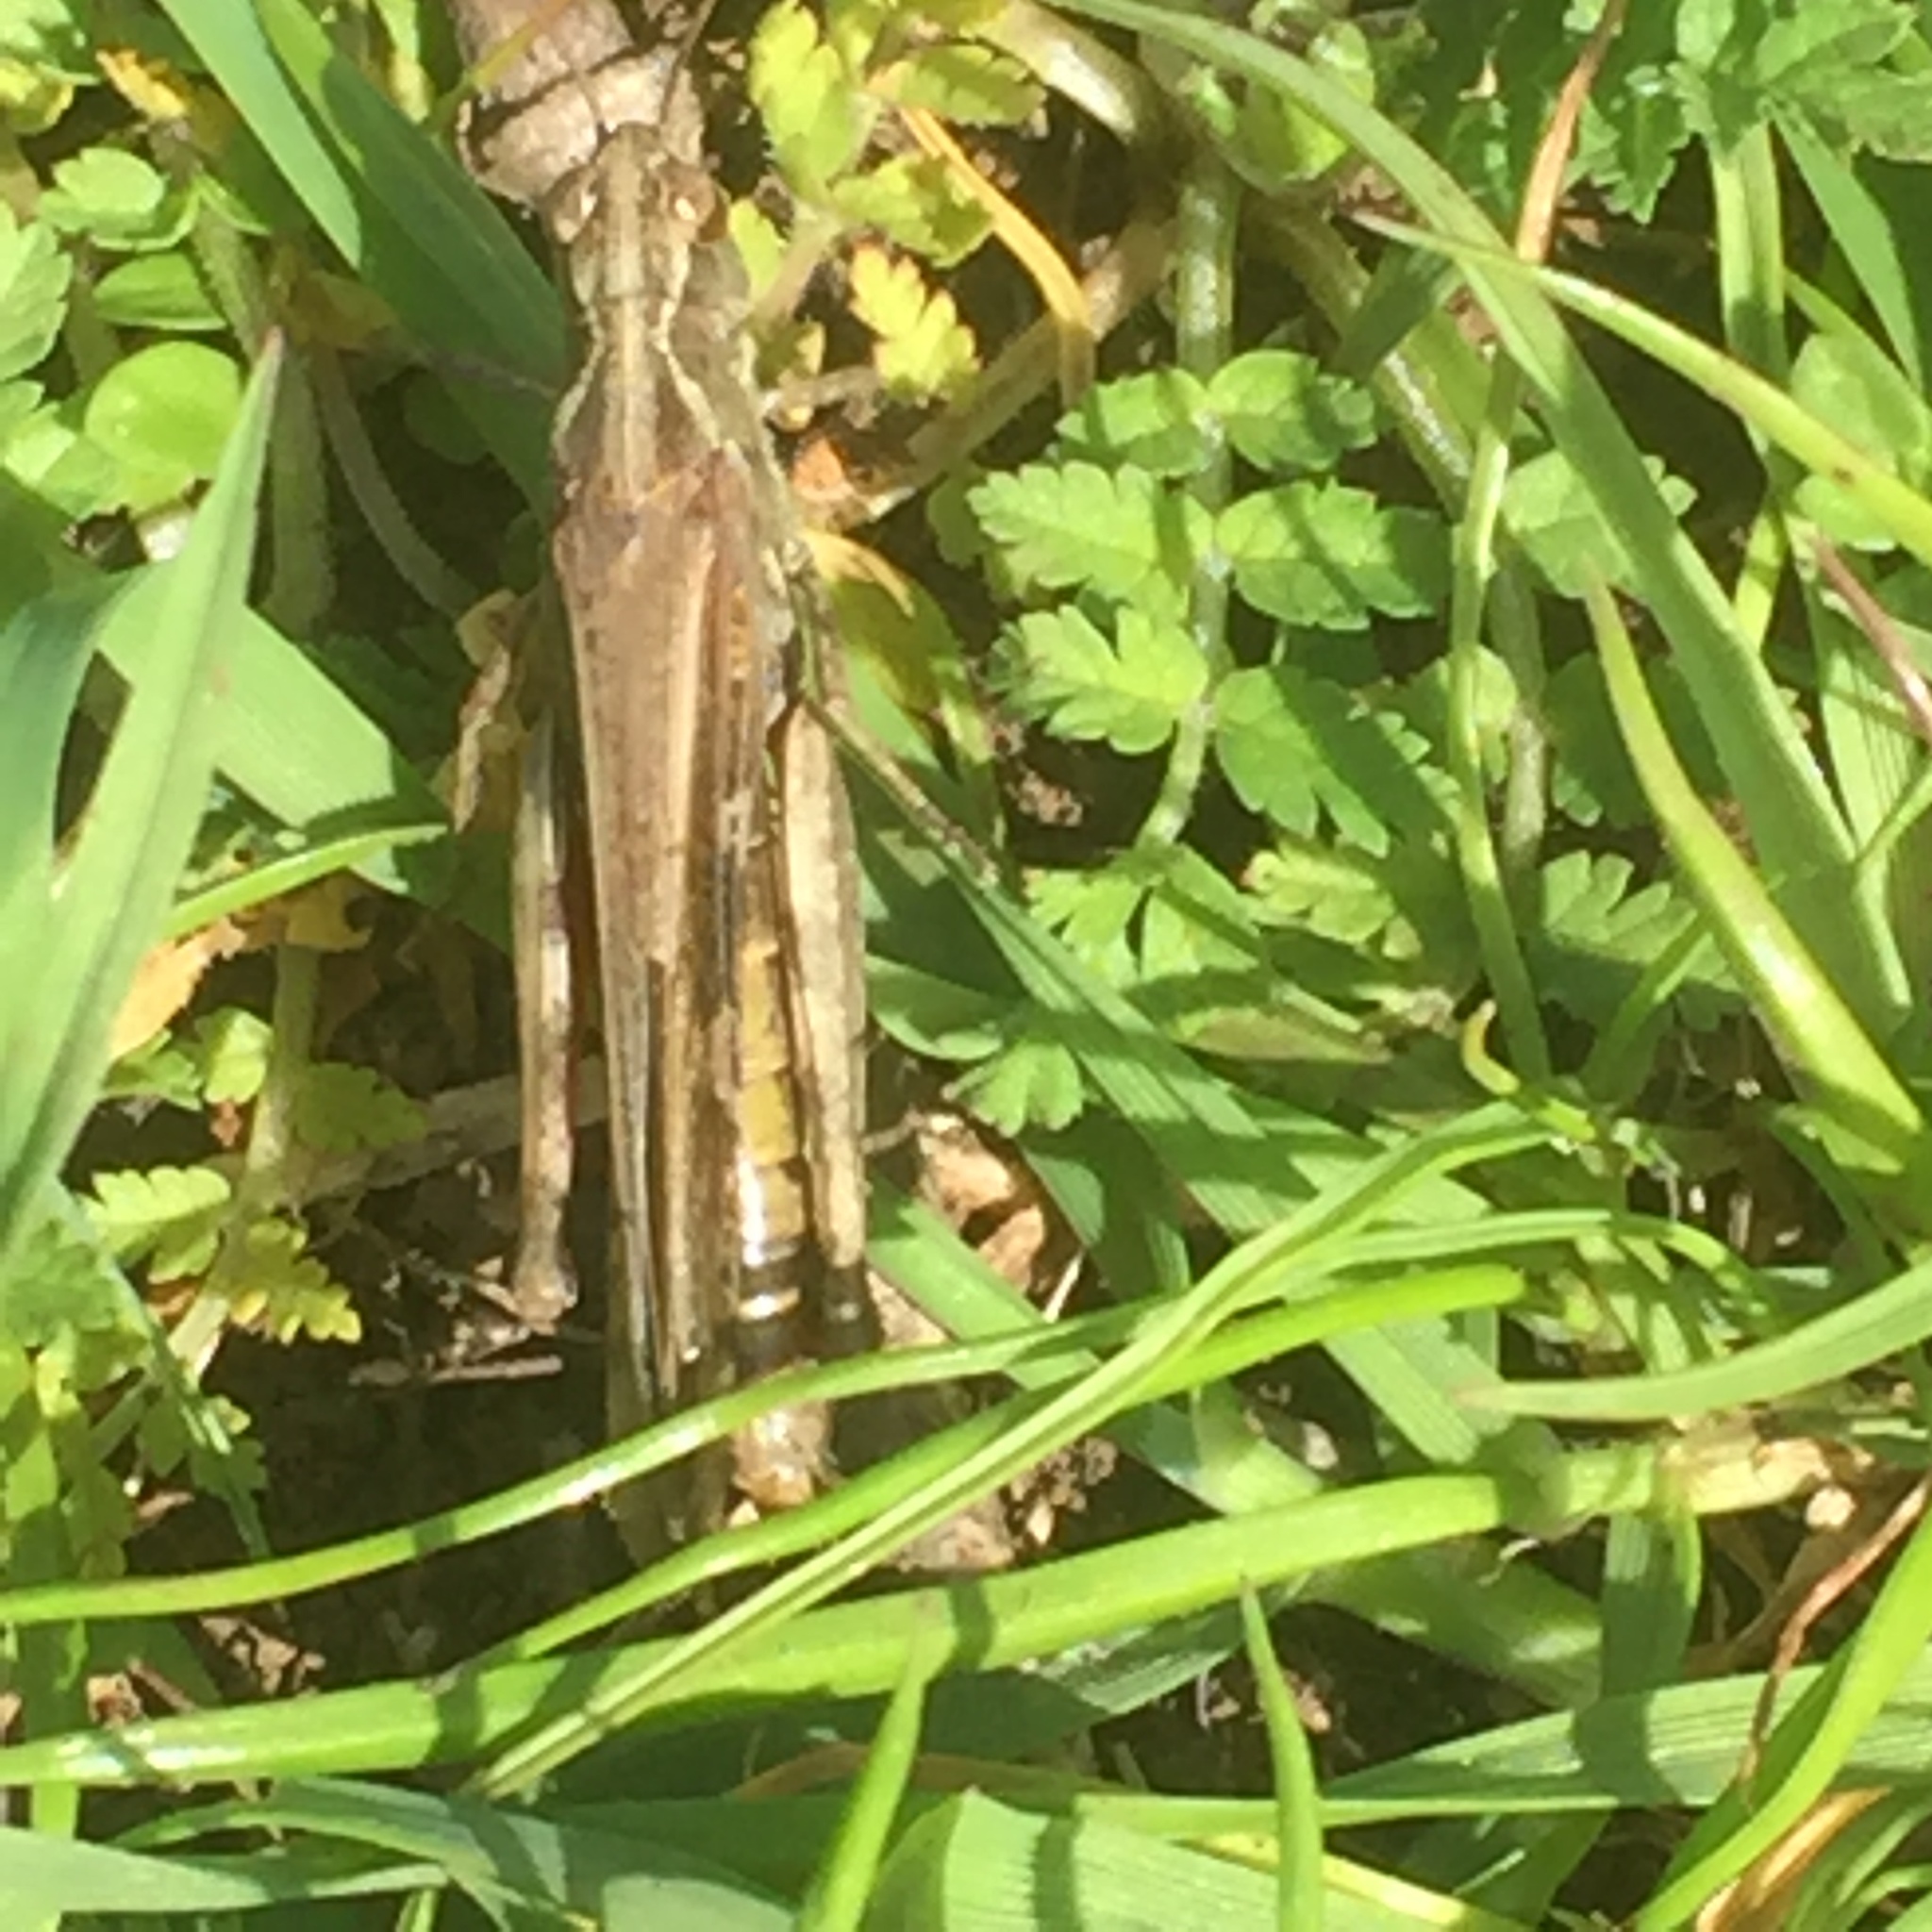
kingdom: Animalia
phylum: Arthropoda
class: Insecta
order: Orthoptera
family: Acrididae
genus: Aiolopus
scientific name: Aiolopus thalassinus
